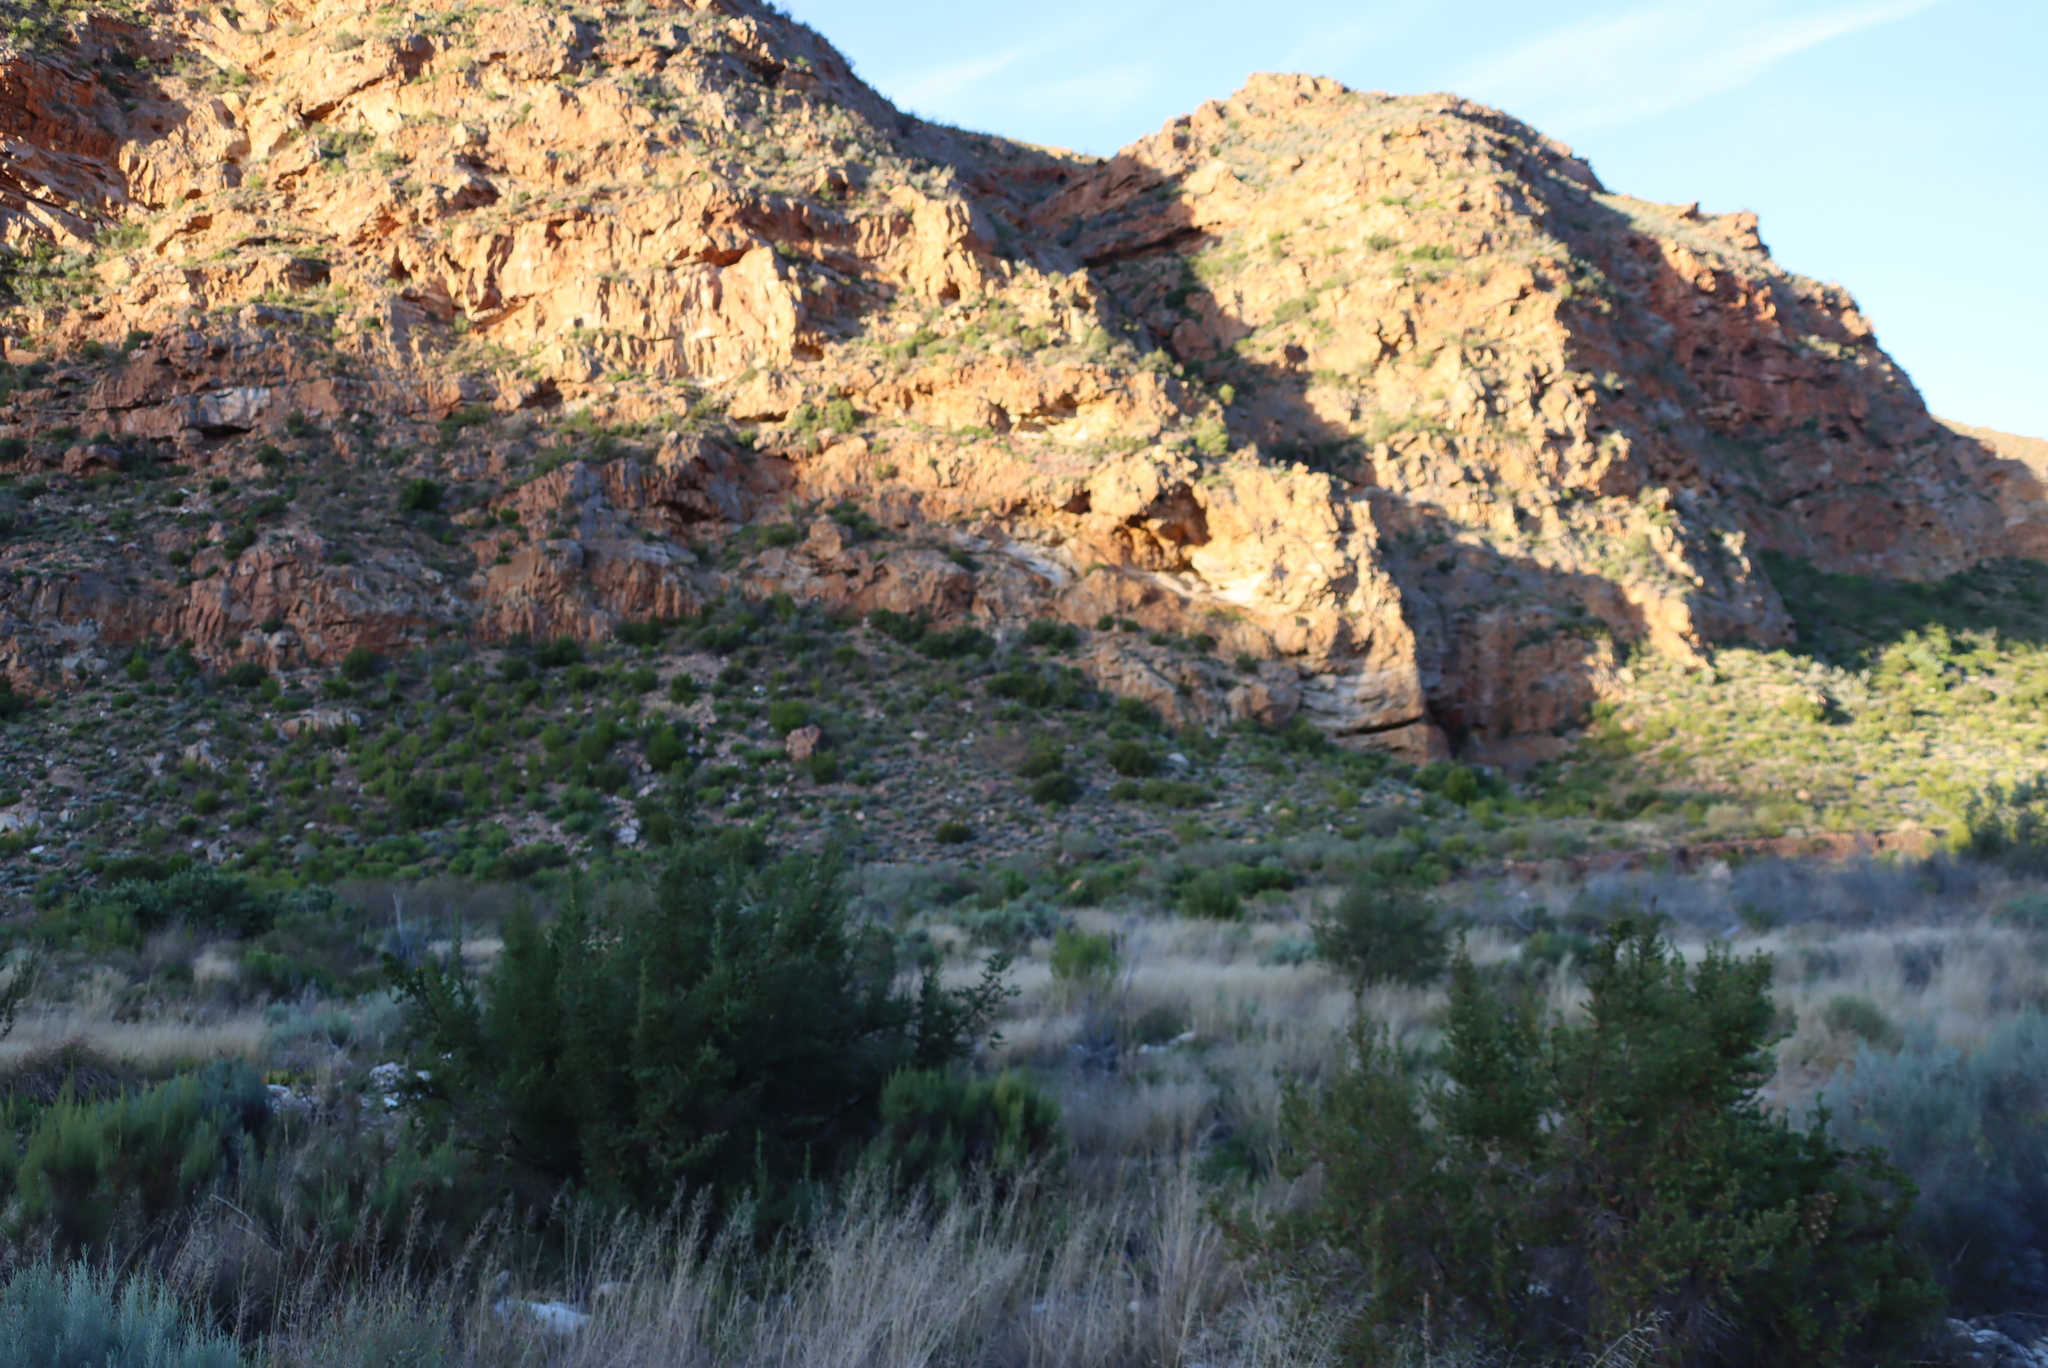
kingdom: Plantae
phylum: Tracheophyta
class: Magnoliopsida
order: Rosales
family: Rosaceae
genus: Cliffortia
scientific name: Cliffortia ruscifolia
